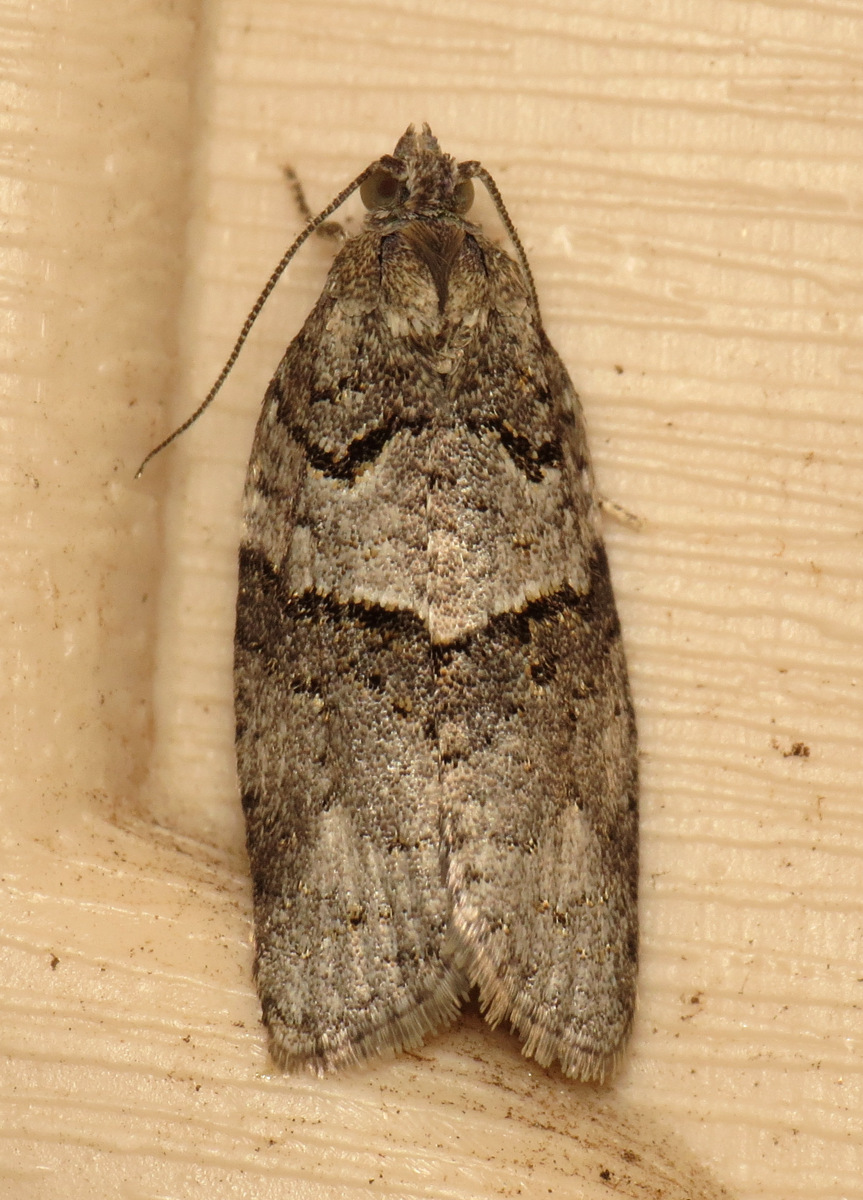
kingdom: Animalia
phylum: Arthropoda
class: Insecta
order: Lepidoptera
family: Tortricidae
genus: Syndemis
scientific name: Syndemis afflictana
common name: Gray leafroller moth
